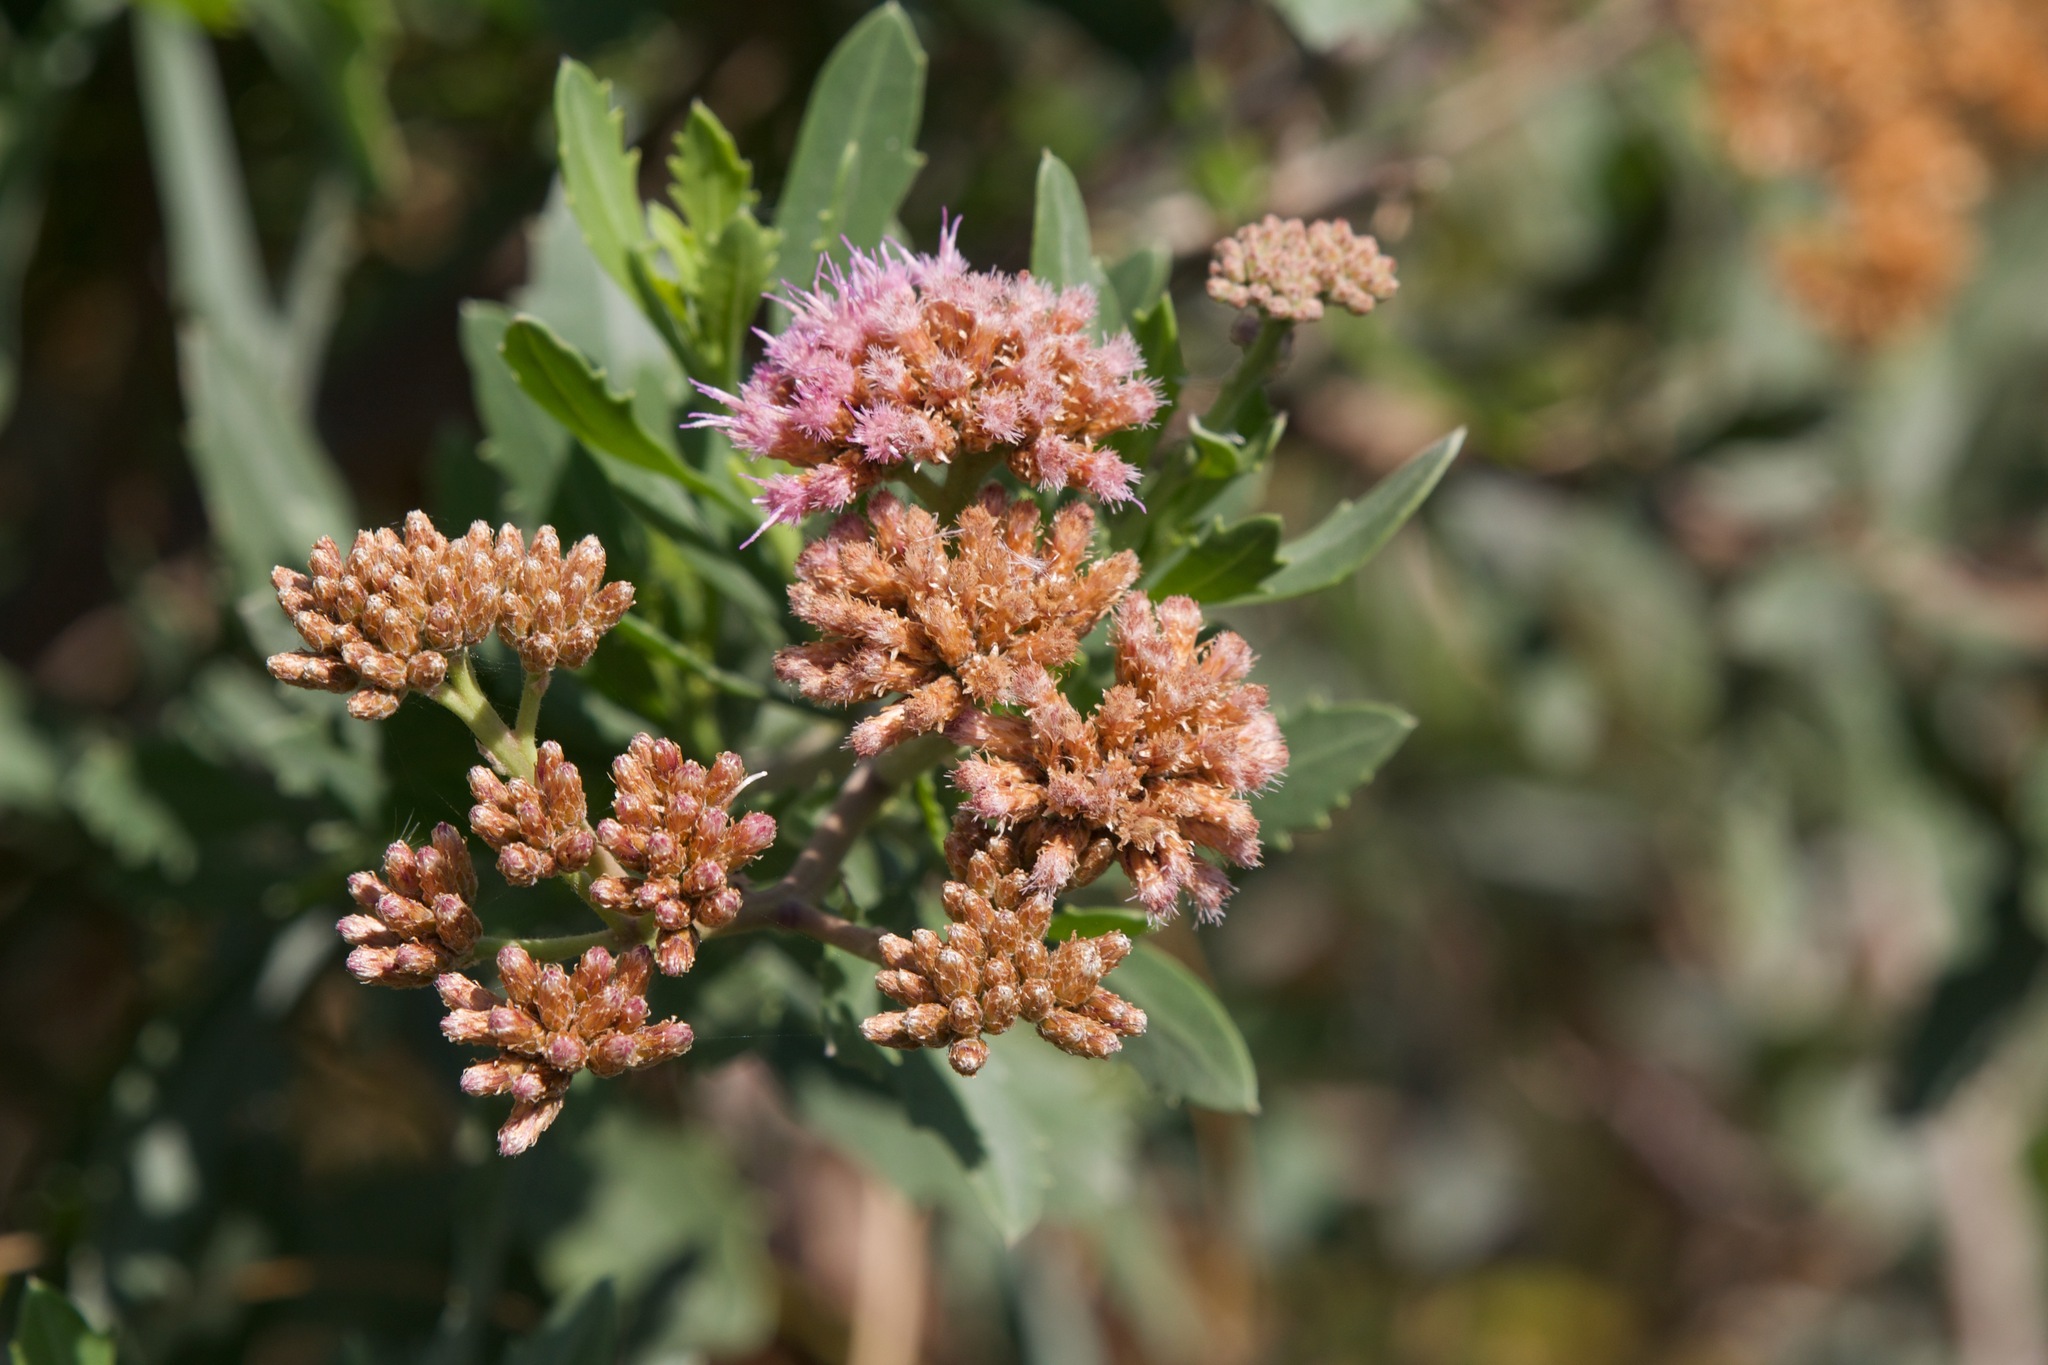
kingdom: Plantae
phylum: Tracheophyta
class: Magnoliopsida
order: Asterales
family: Asteraceae
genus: Tessaria
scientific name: Tessaria absinthioides
